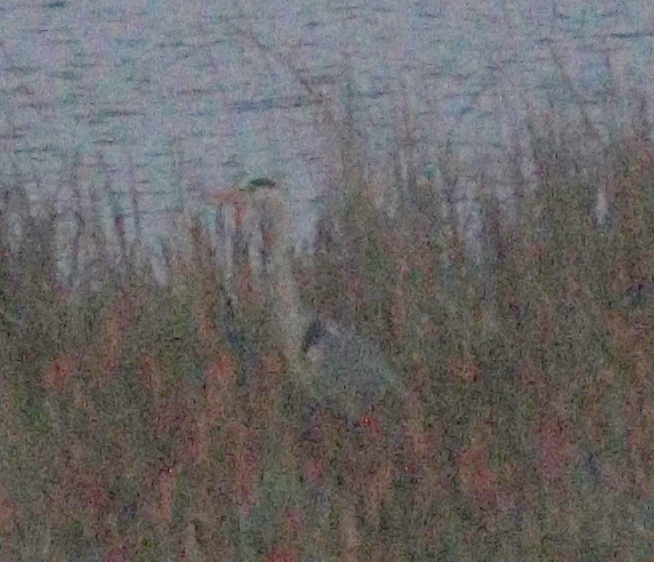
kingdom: Animalia
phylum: Chordata
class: Aves
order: Pelecaniformes
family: Ardeidae
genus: Ardea
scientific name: Ardea cinerea
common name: Grey heron
